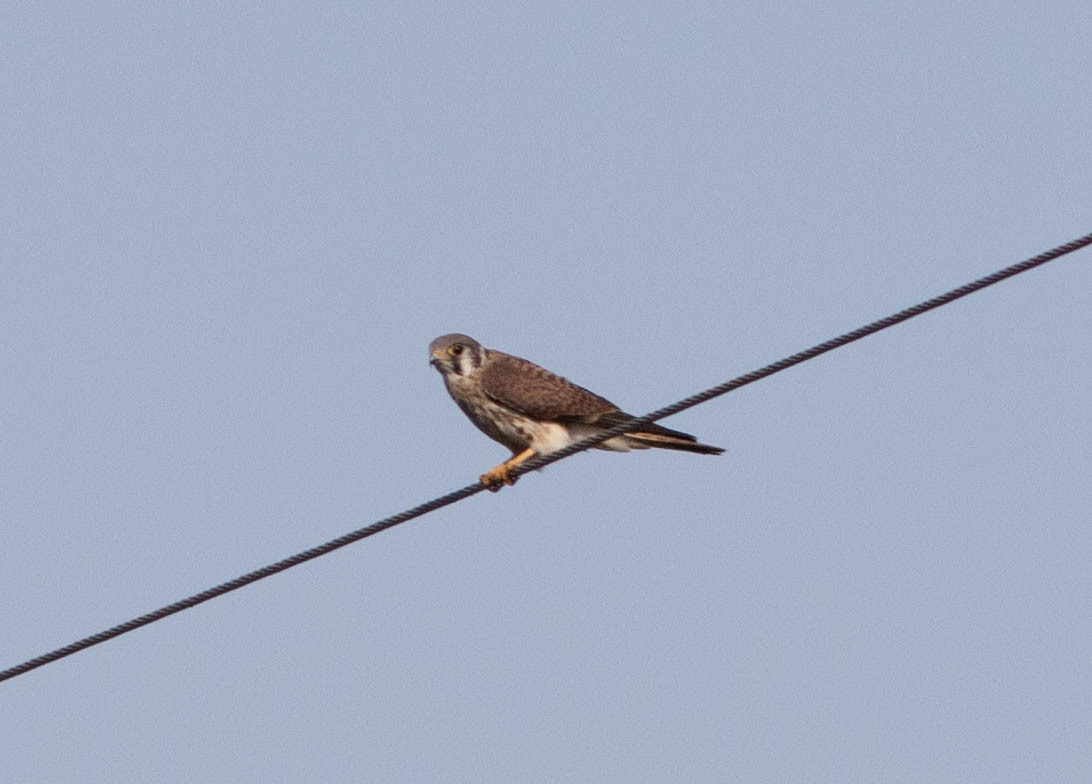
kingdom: Animalia
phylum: Chordata
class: Aves
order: Falconiformes
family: Falconidae
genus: Falco
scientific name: Falco sparverius
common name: American kestrel
